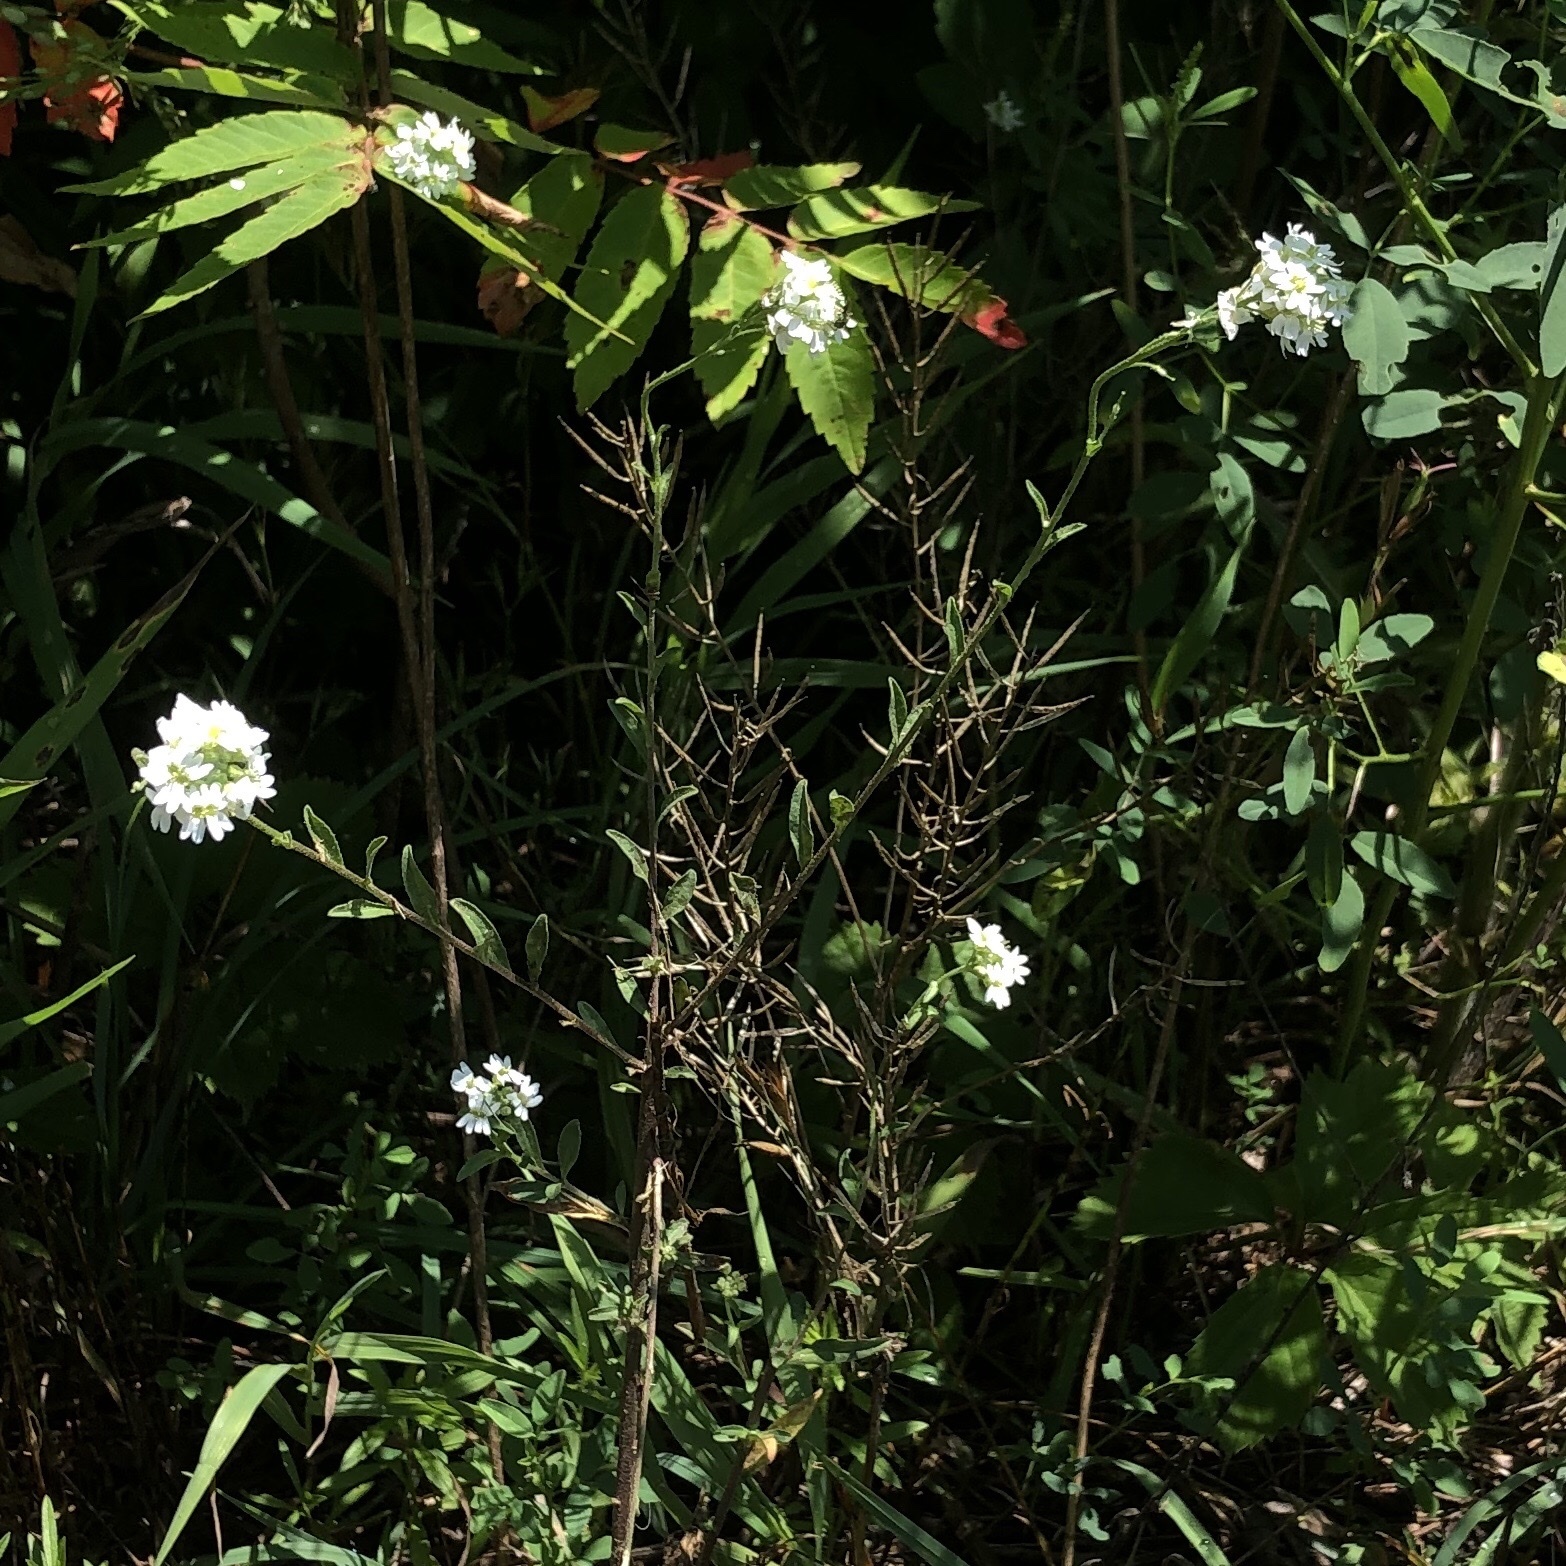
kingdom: Plantae
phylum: Tracheophyta
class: Magnoliopsida
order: Brassicales
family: Brassicaceae
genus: Berteroa
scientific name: Berteroa incana
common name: Hoary alison
